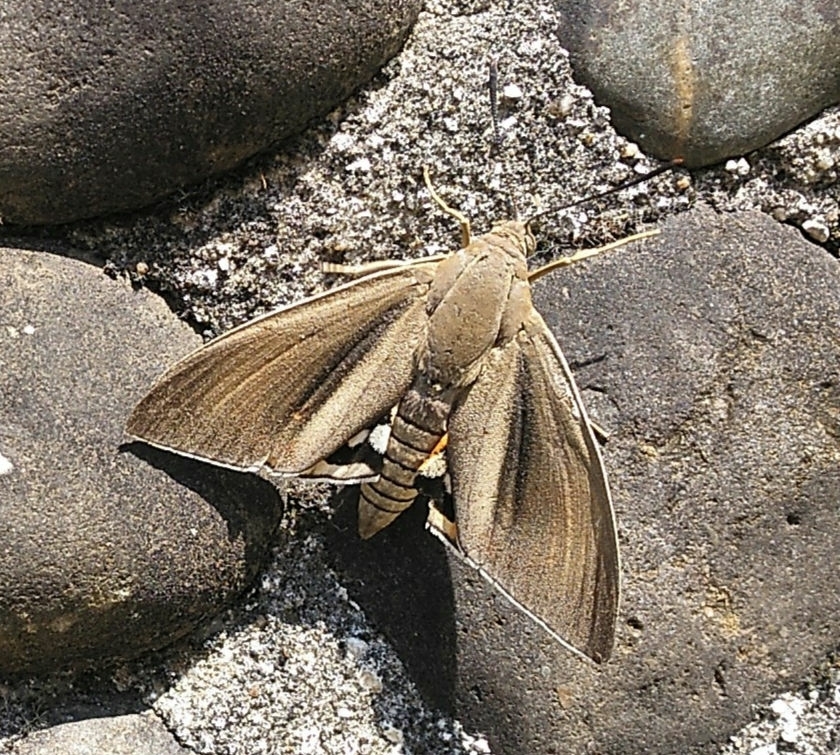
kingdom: Animalia
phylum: Arthropoda
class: Insecta
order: Lepidoptera
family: Castniidae
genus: Paysandisia
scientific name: Paysandisia archon
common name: Palm moth
